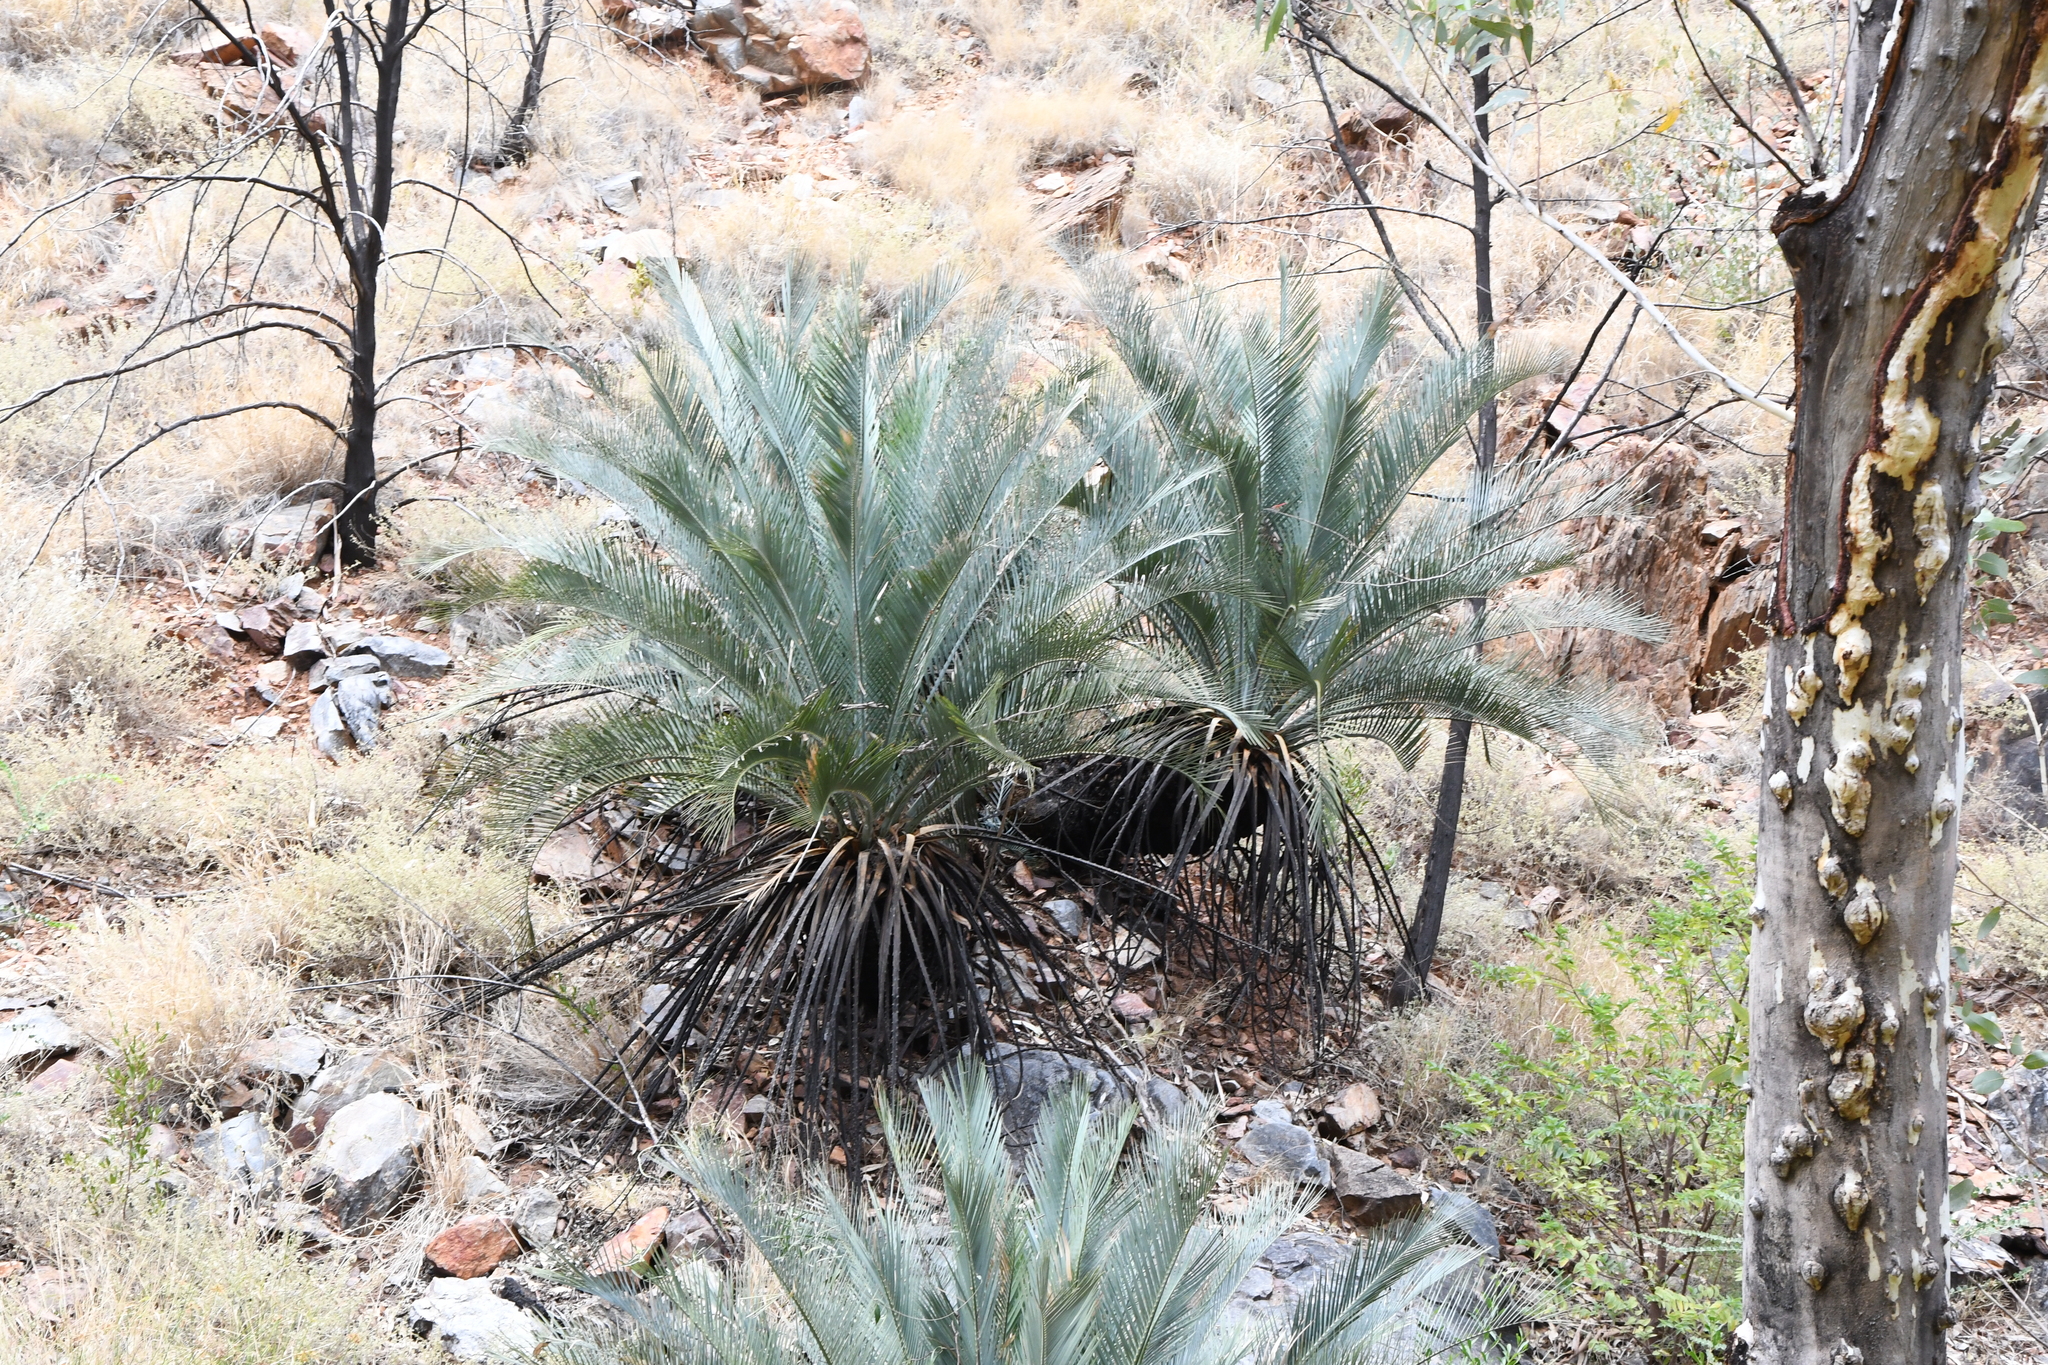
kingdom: Plantae
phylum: Tracheophyta
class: Cycadopsida
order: Cycadales
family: Zamiaceae
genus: Macrozamia
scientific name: Macrozamia macdonnellii
